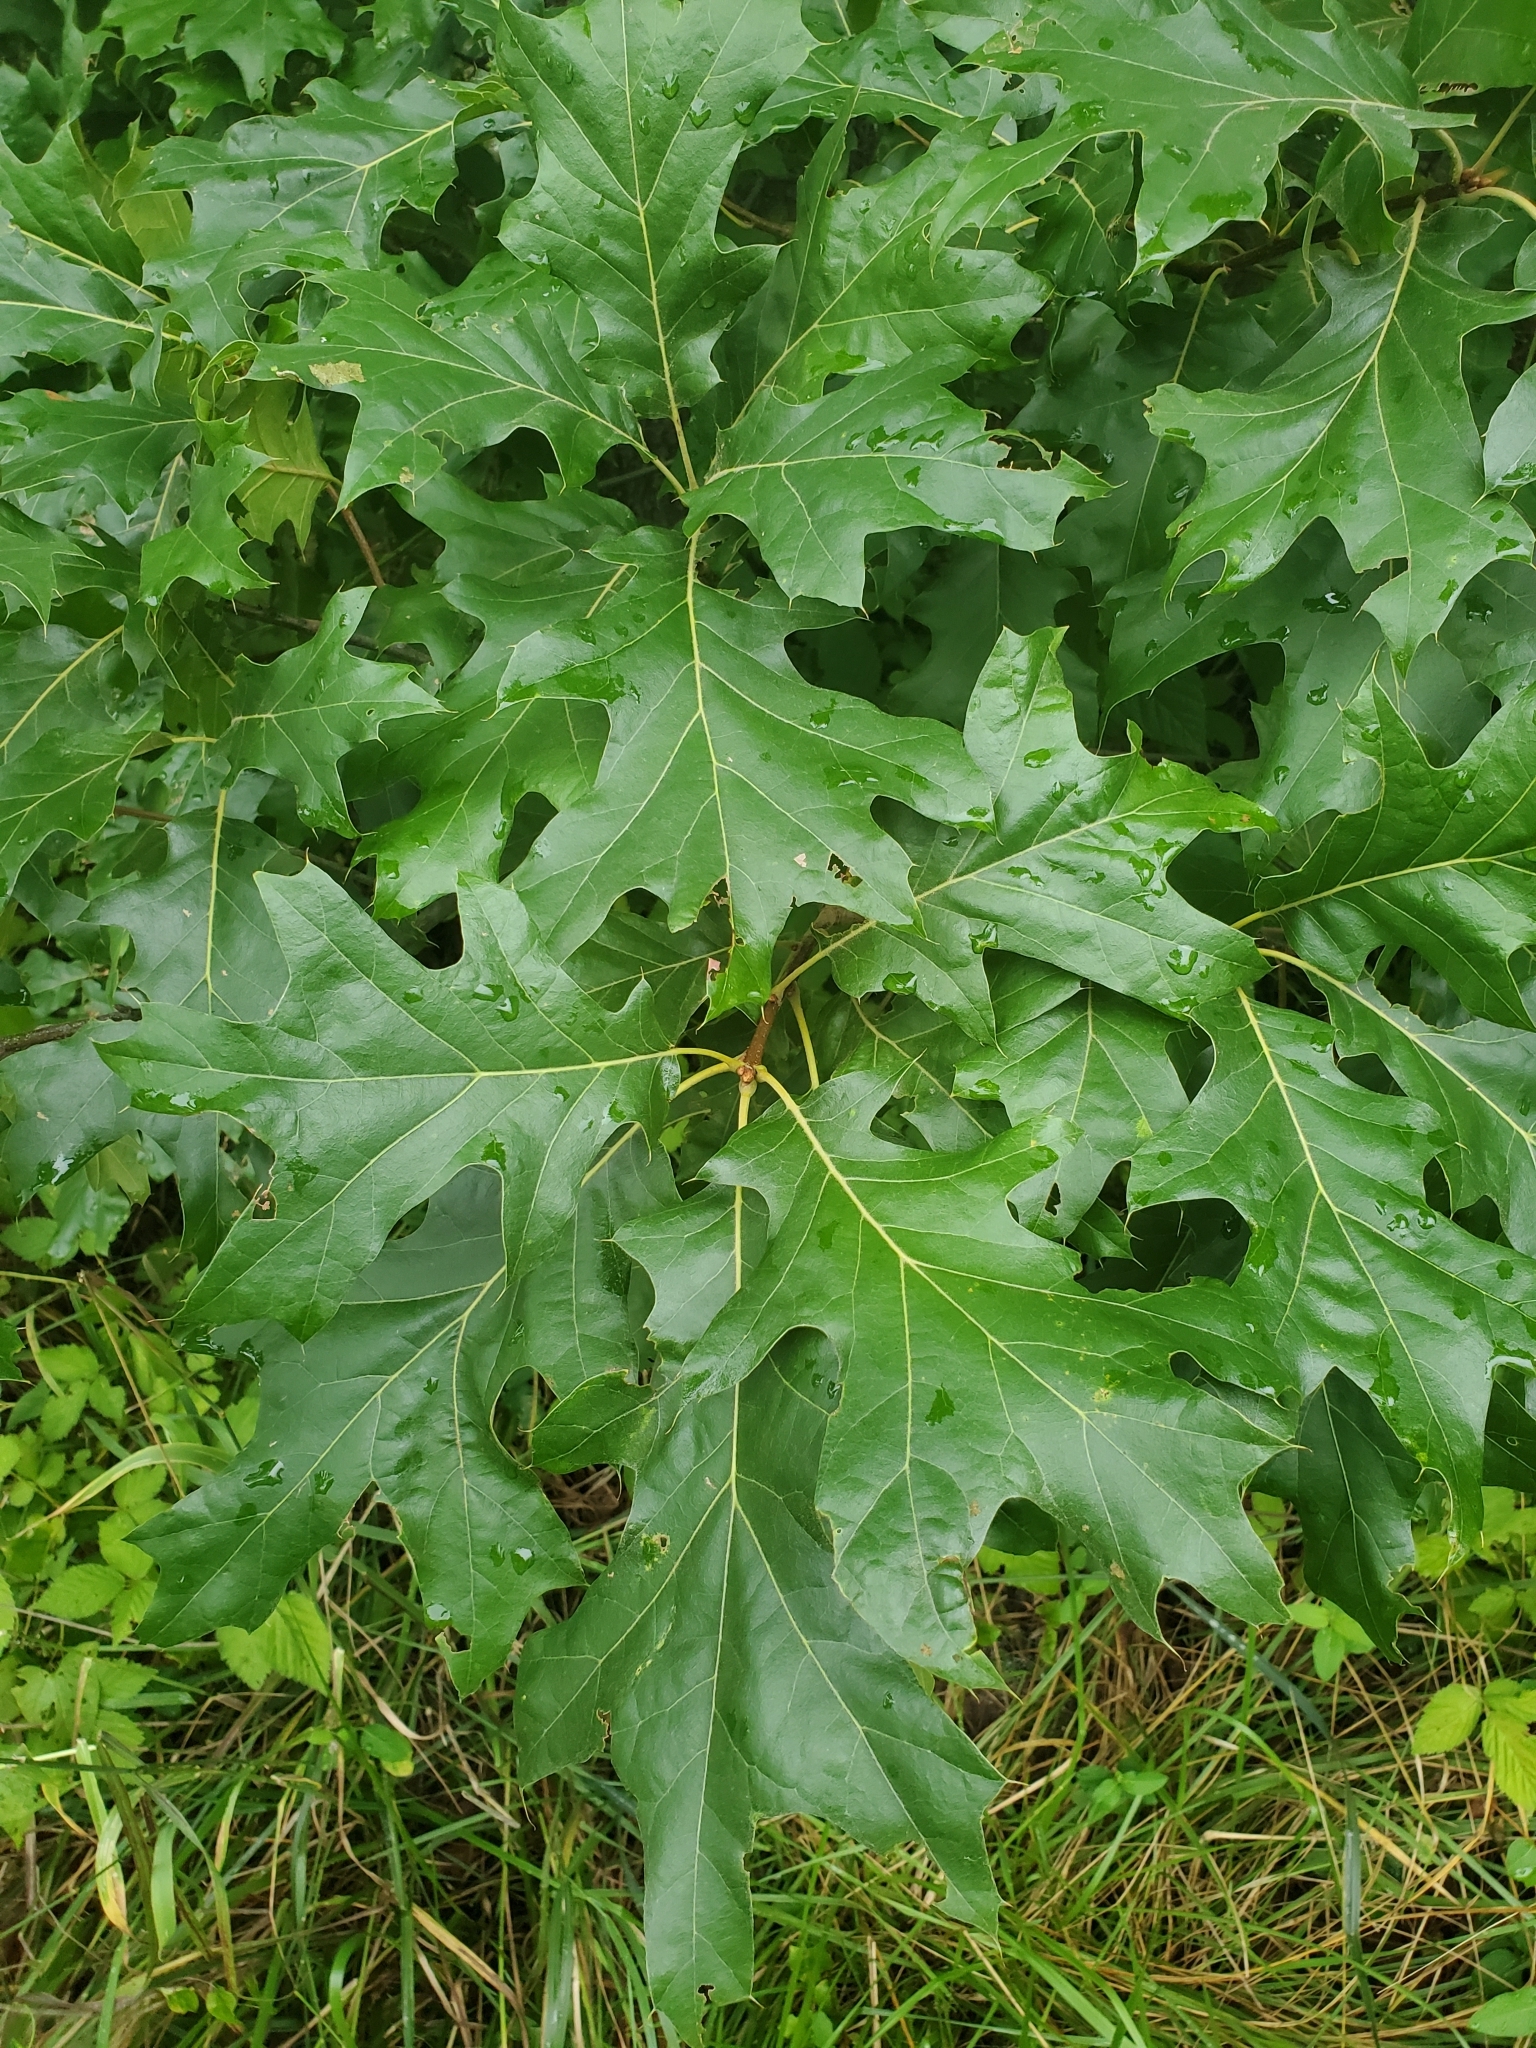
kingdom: Plantae
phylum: Tracheophyta
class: Magnoliopsida
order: Fagales
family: Fagaceae
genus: Quercus
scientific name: Quercus velutina
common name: Black oak
